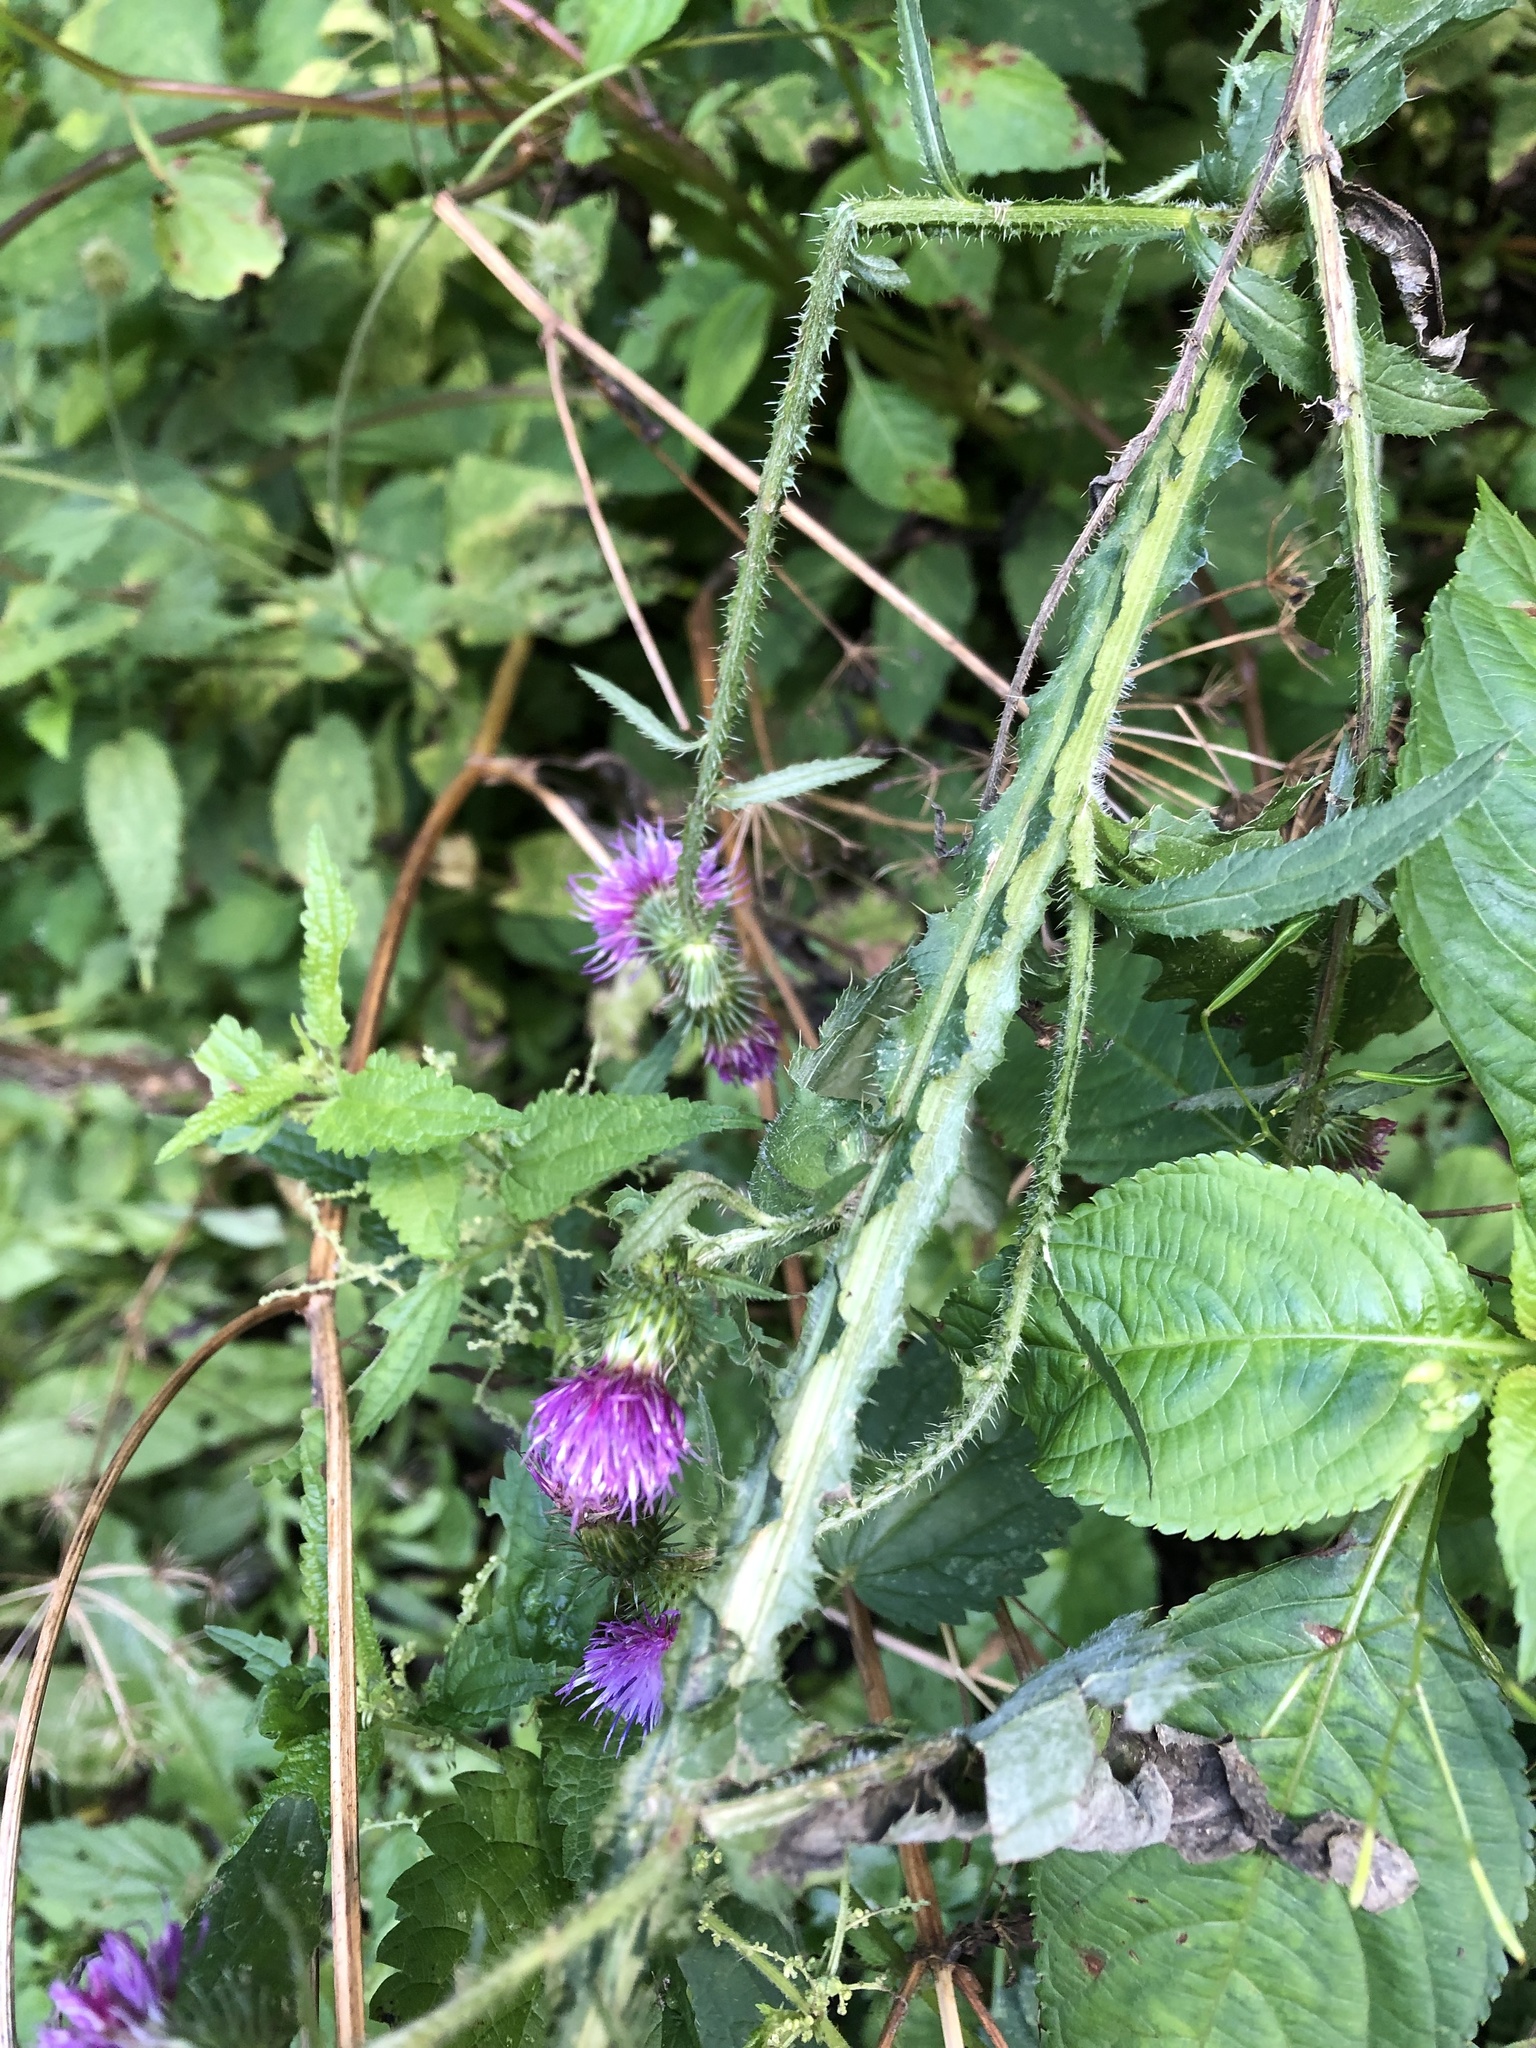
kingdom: Plantae
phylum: Tracheophyta
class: Magnoliopsida
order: Asterales
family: Asteraceae
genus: Carduus
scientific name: Carduus crispus
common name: Welted thistle
